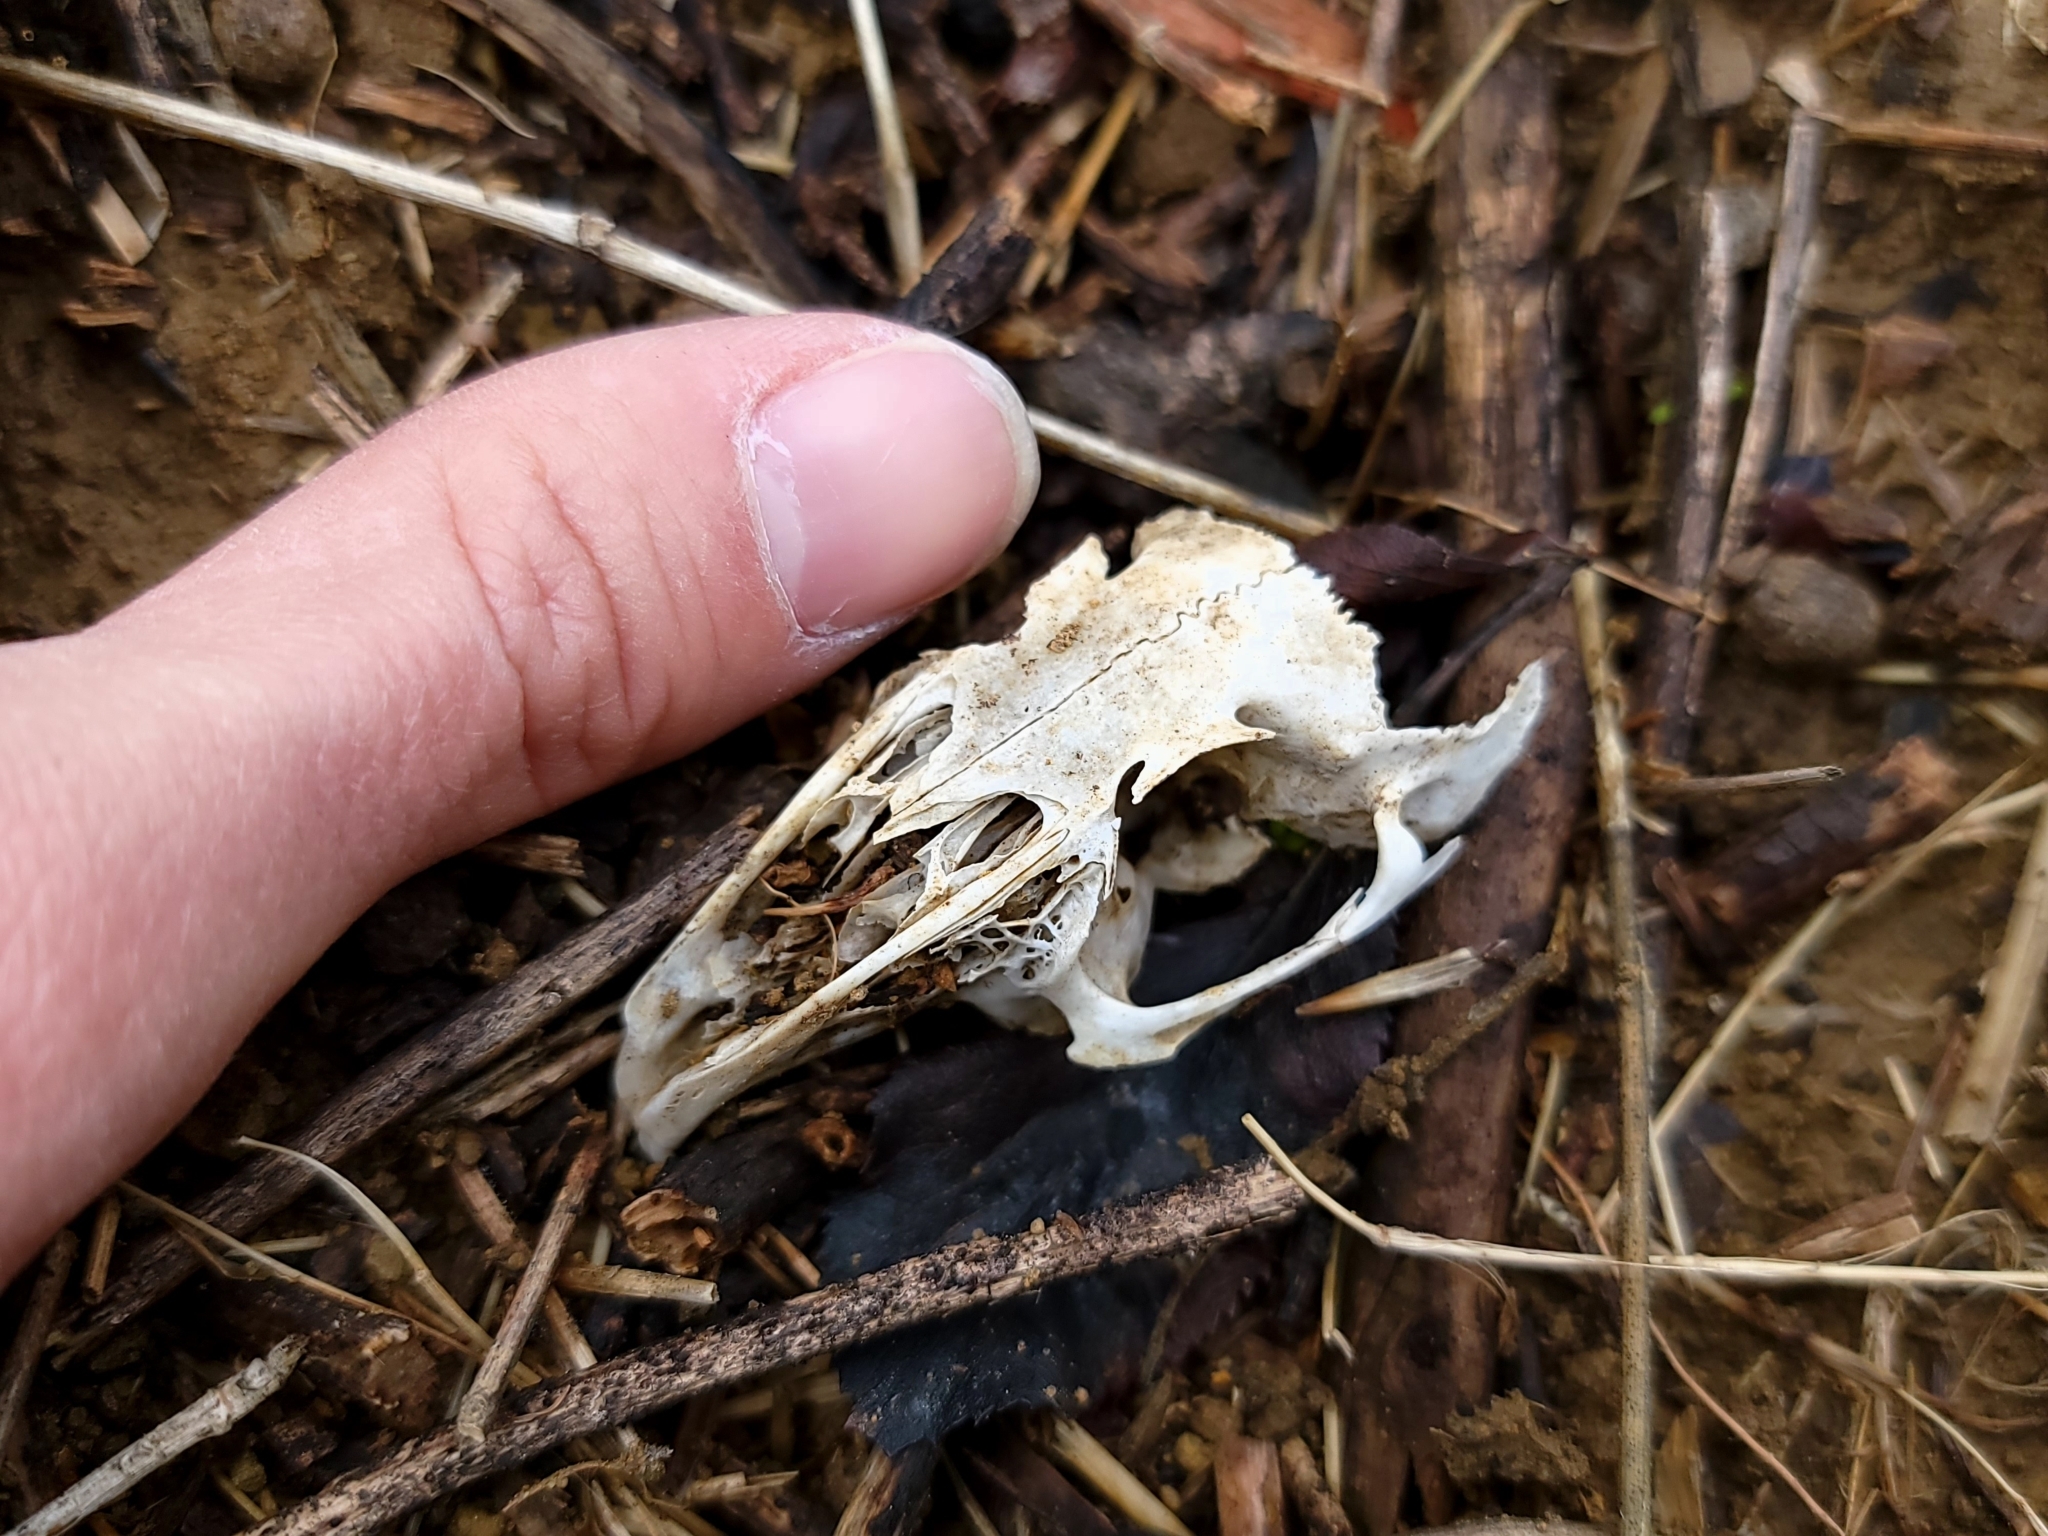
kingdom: Animalia
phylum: Chordata
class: Mammalia
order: Lagomorpha
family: Leporidae
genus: Sylvilagus
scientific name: Sylvilagus bachmani
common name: Brush rabbit
